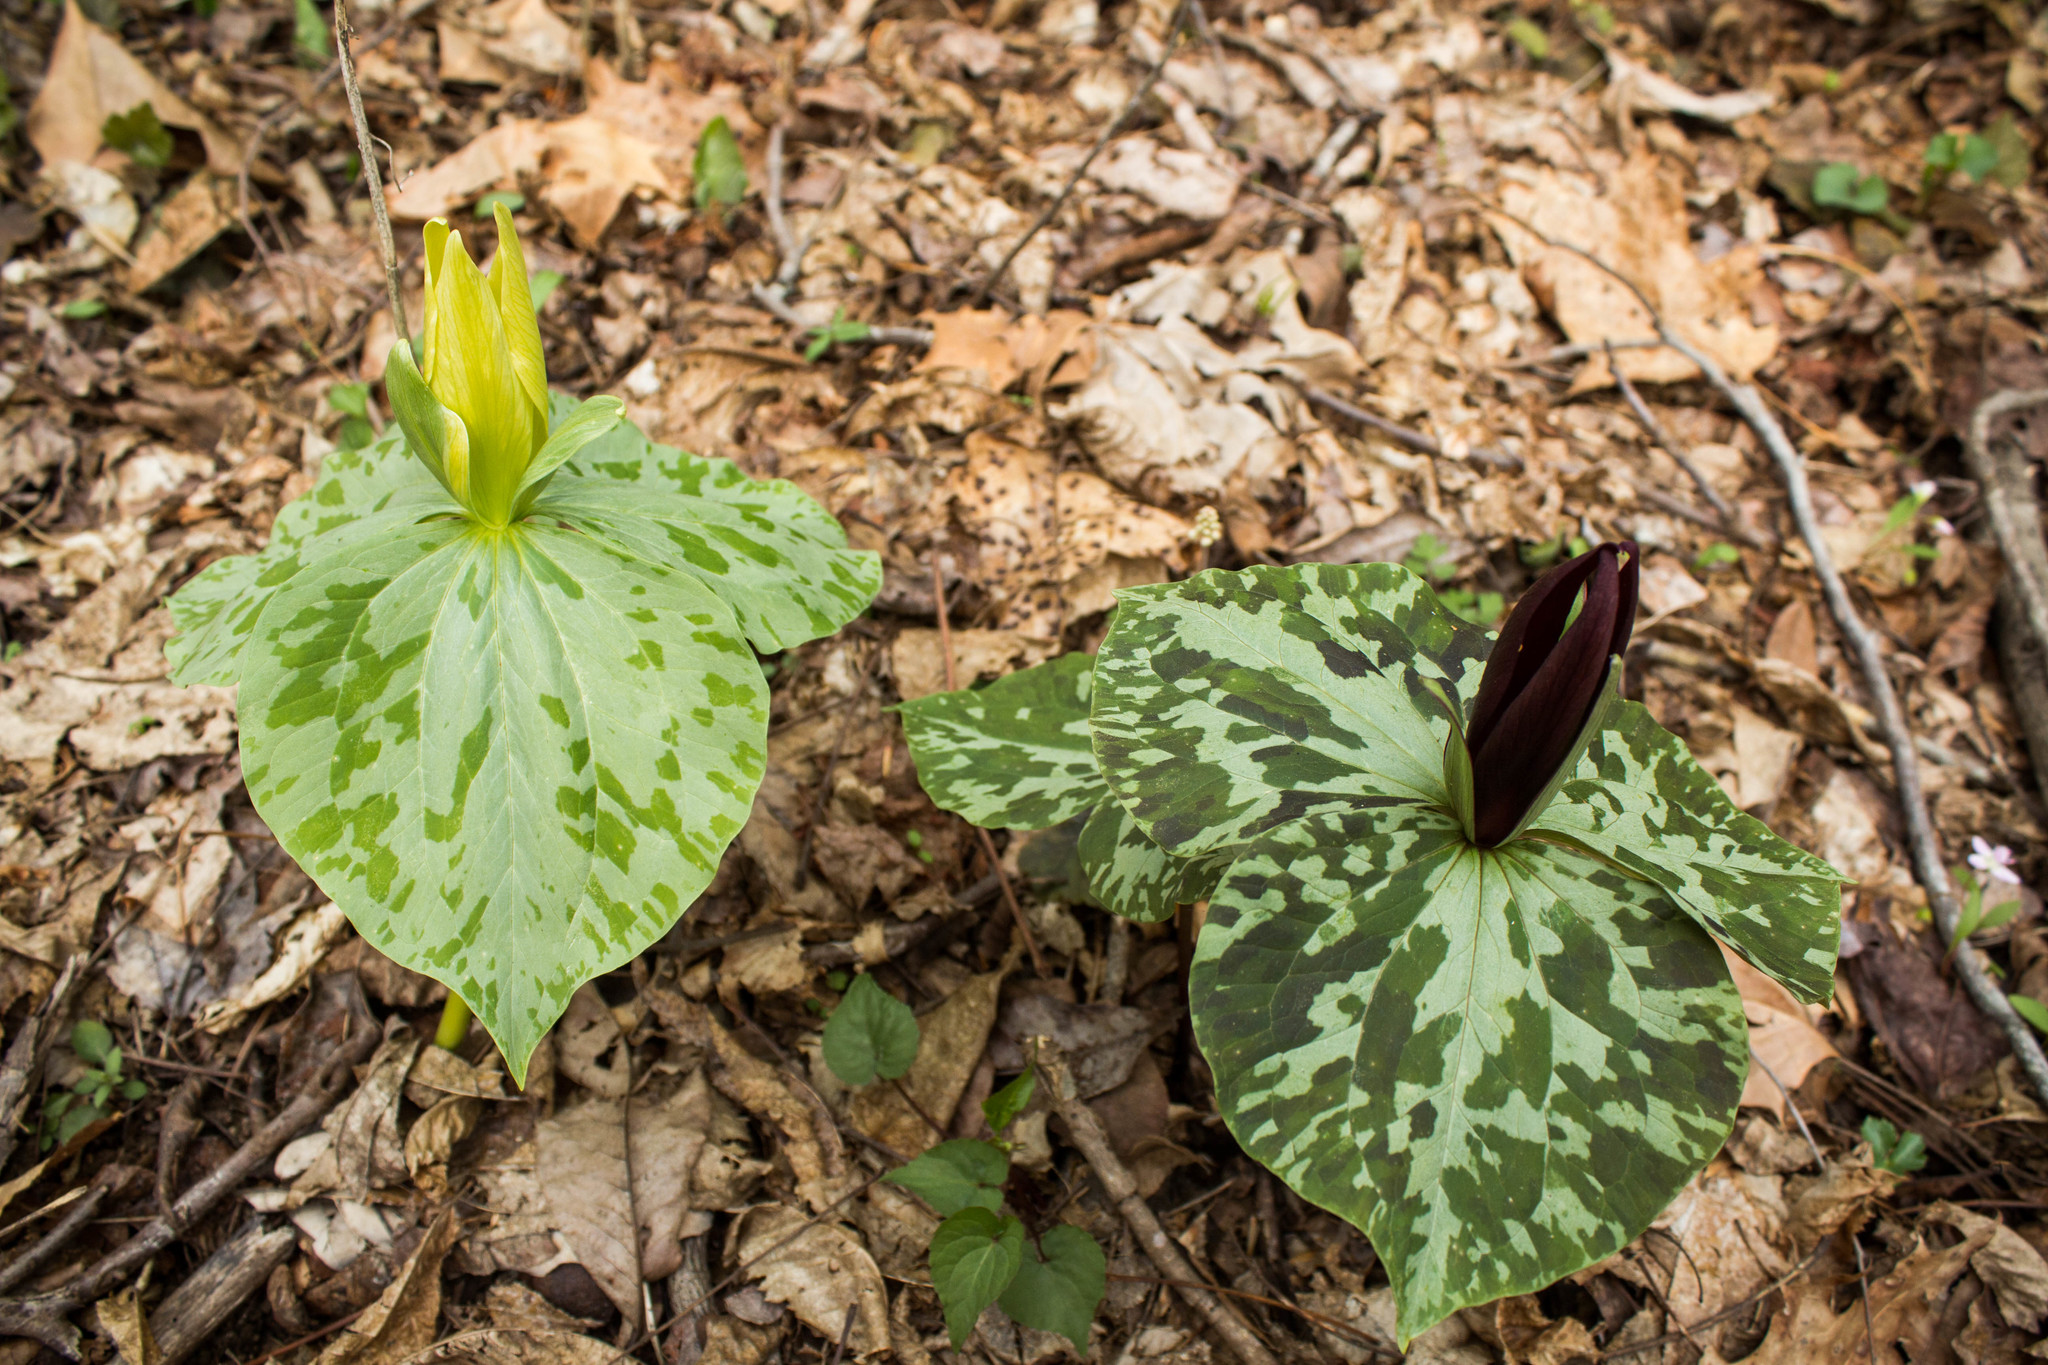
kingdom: Plantae
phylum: Tracheophyta
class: Liliopsida
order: Liliales
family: Melanthiaceae
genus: Trillium
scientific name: Trillium cuneatum
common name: Cuneate trillium
